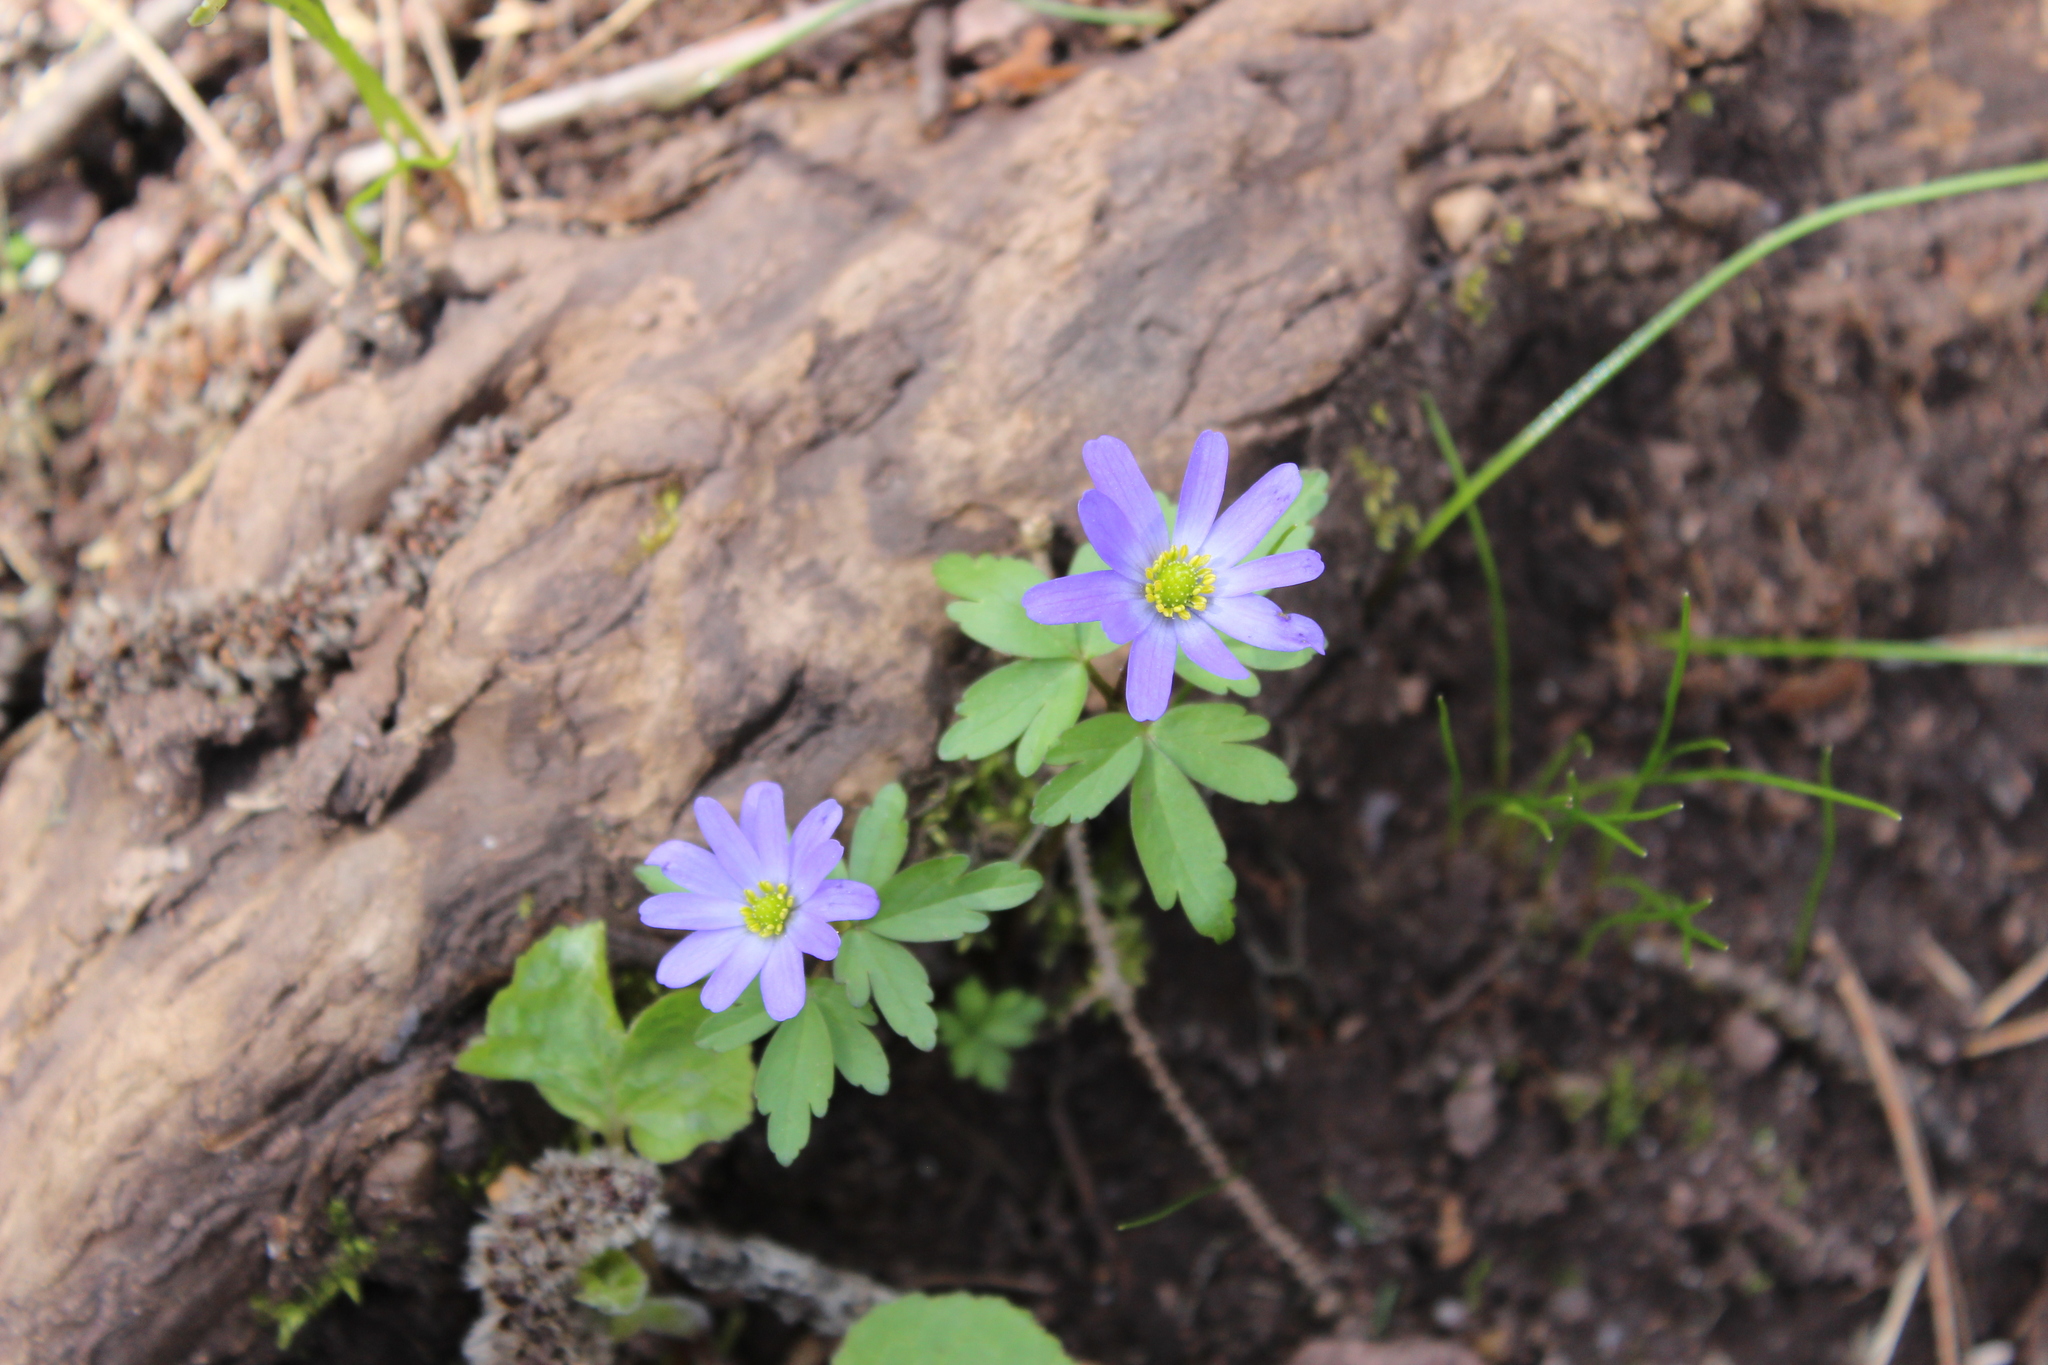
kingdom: Plantae
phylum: Tracheophyta
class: Magnoliopsida
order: Ranunculales
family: Ranunculaceae
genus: Anemone
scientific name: Anemone caucasica
